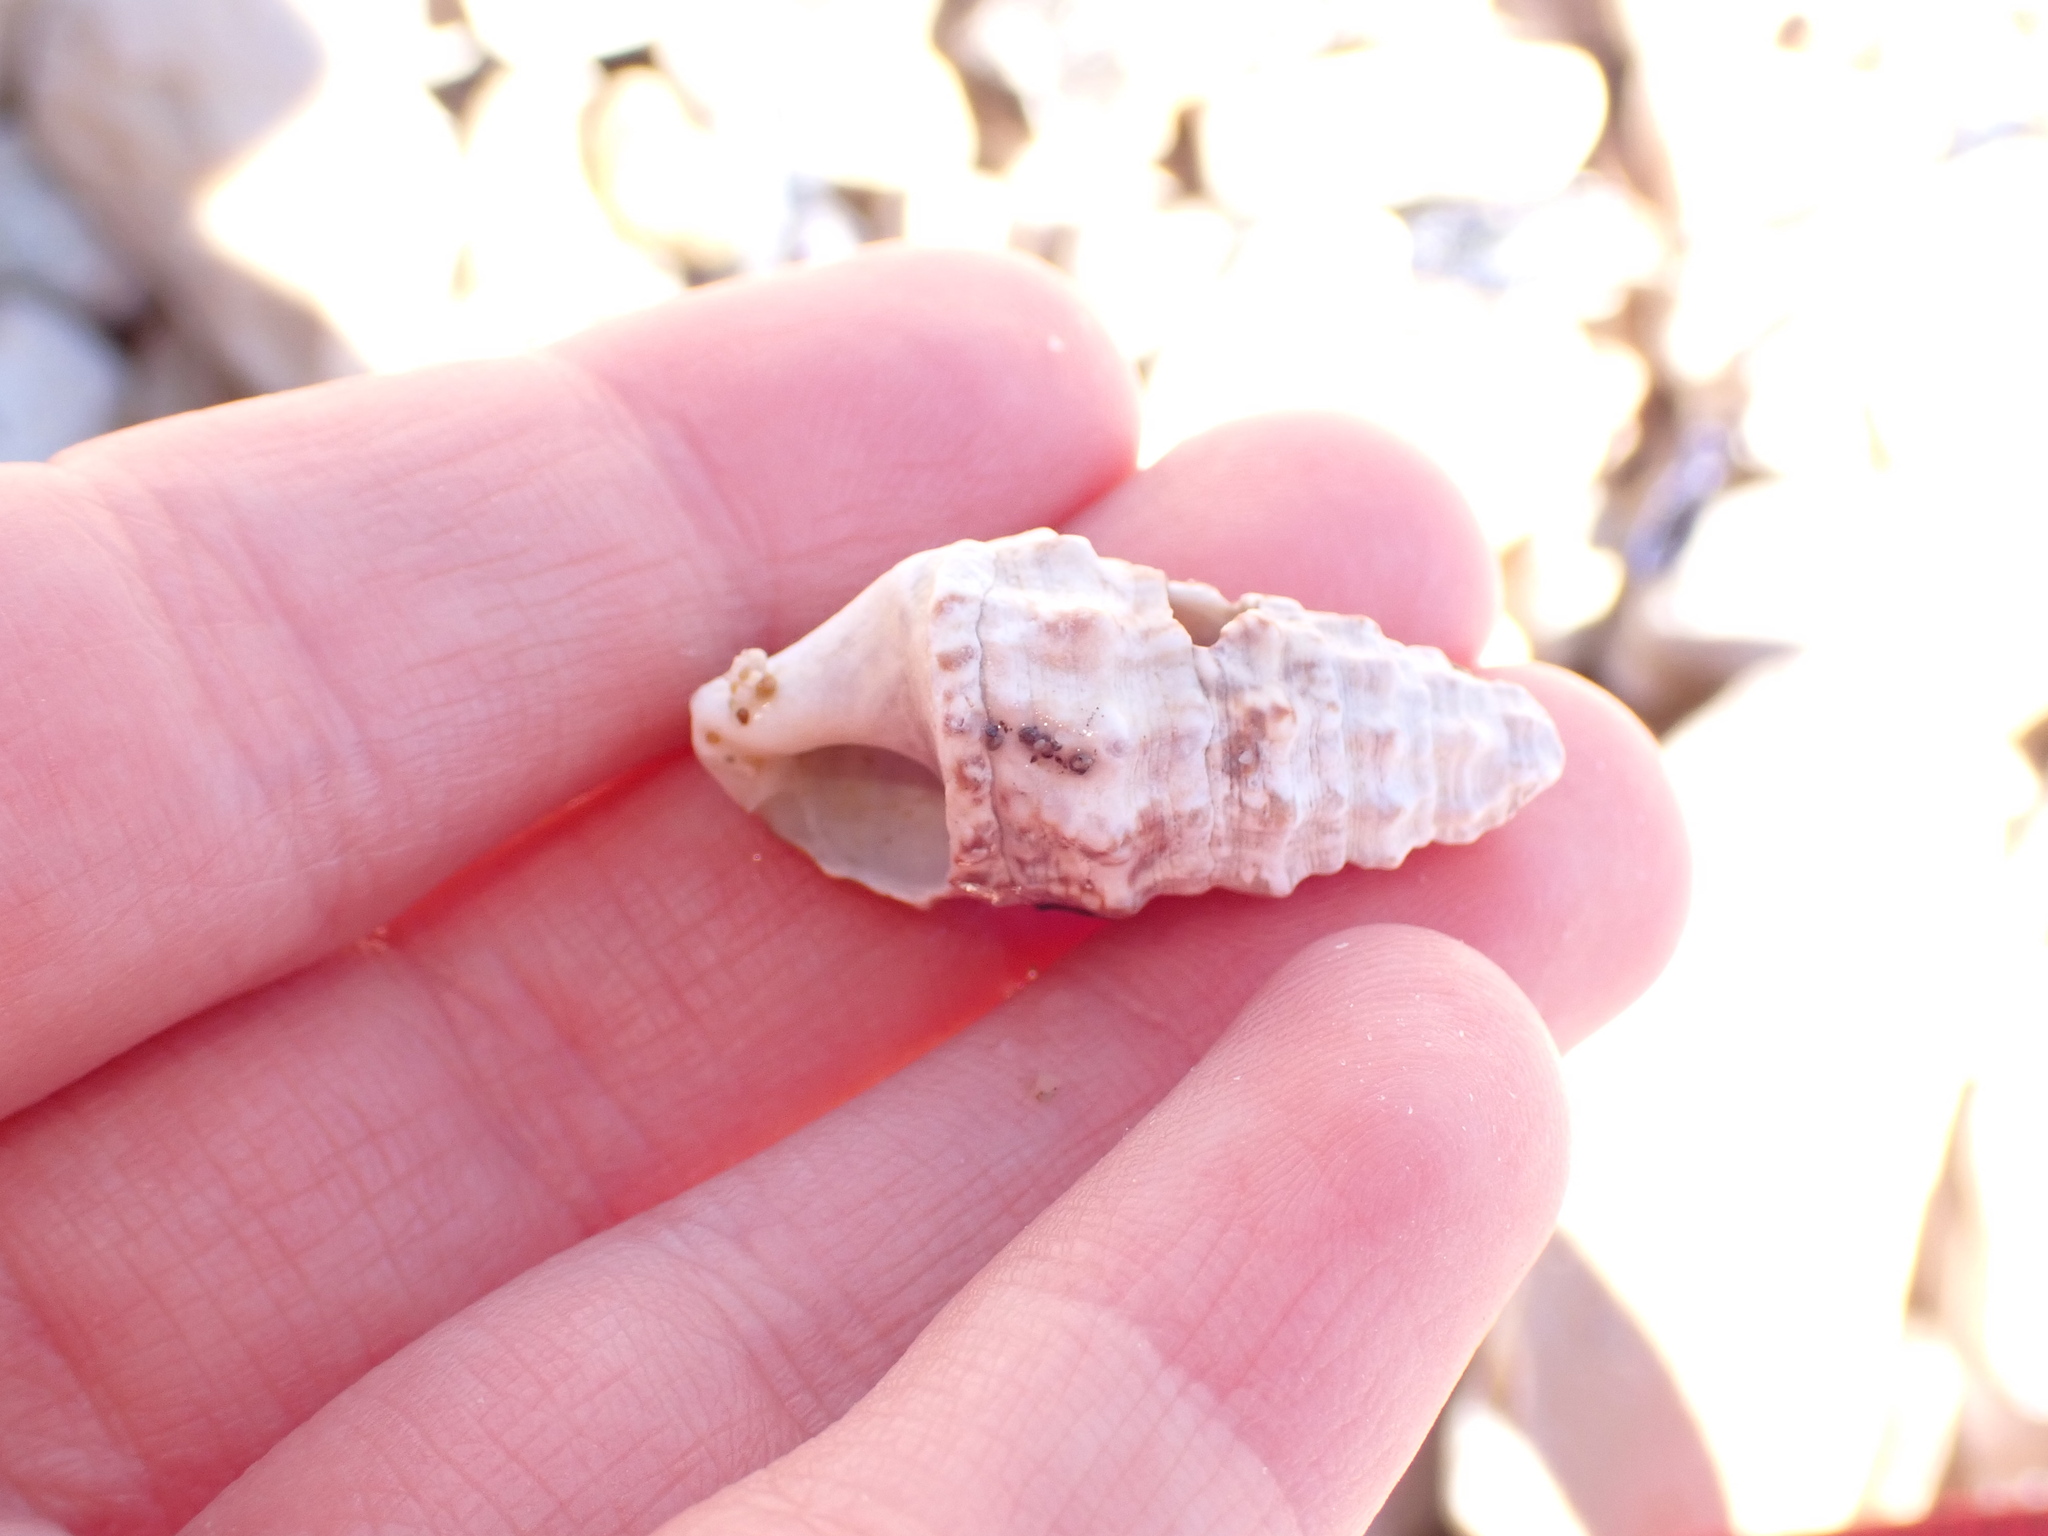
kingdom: Animalia
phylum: Mollusca
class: Gastropoda
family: Cerithiidae
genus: Cerithium
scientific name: Cerithium vulgatum
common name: European cerith
